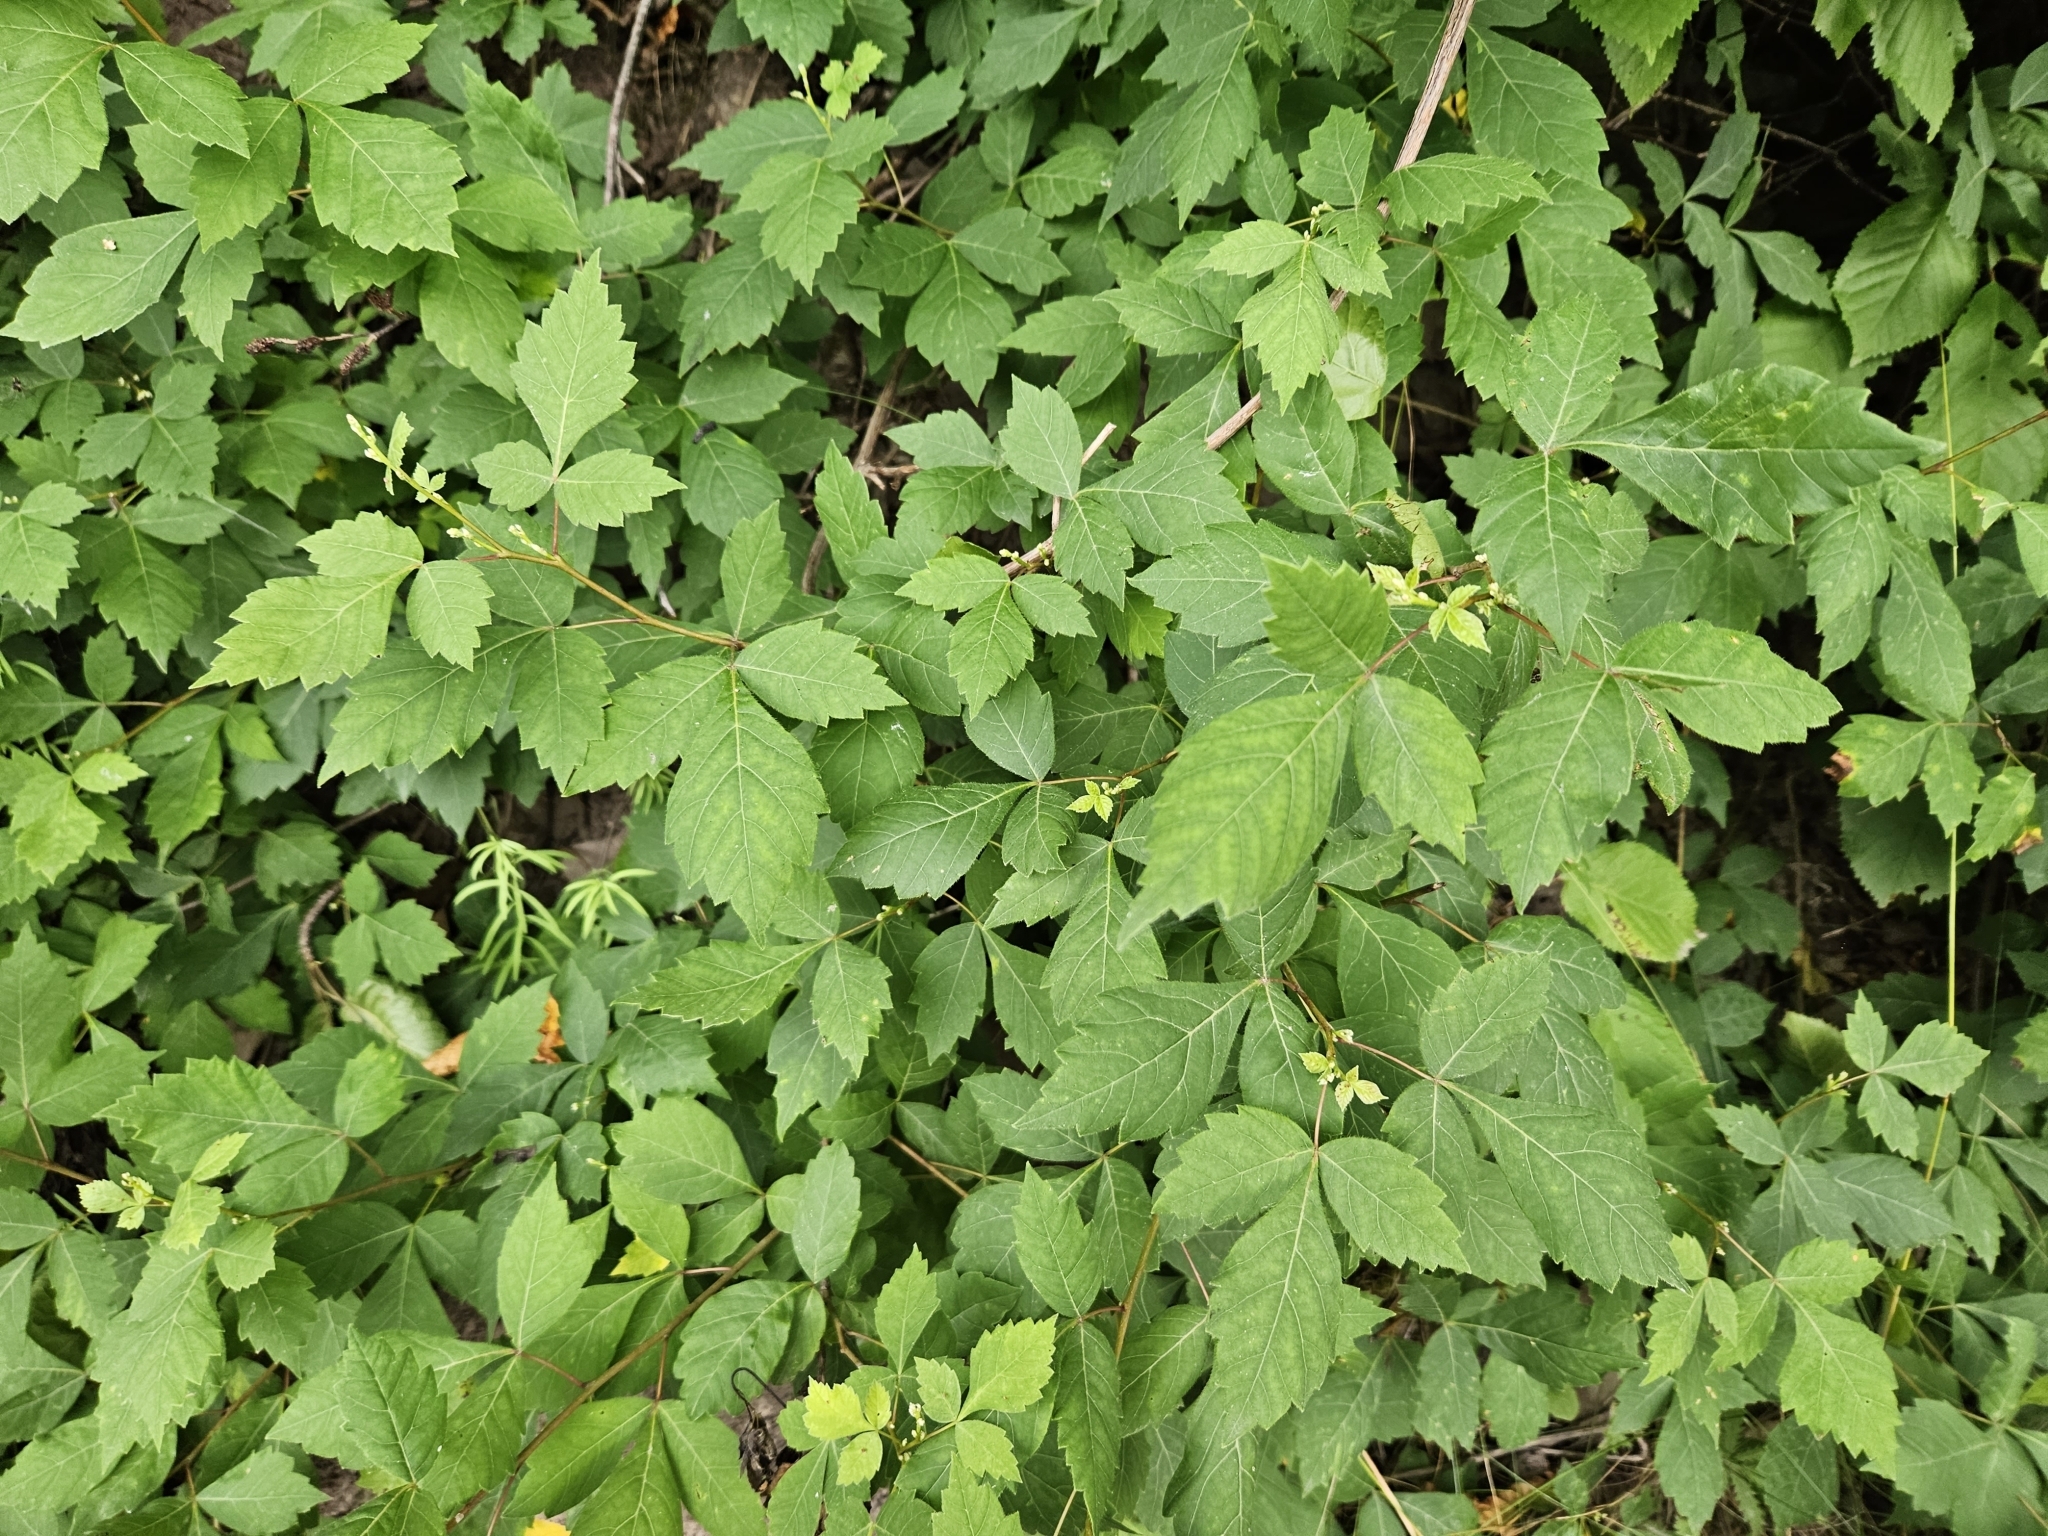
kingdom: Plantae
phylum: Tracheophyta
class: Magnoliopsida
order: Sapindales
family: Anacardiaceae
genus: Rhus
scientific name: Rhus aromatica
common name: Aromatic sumac
